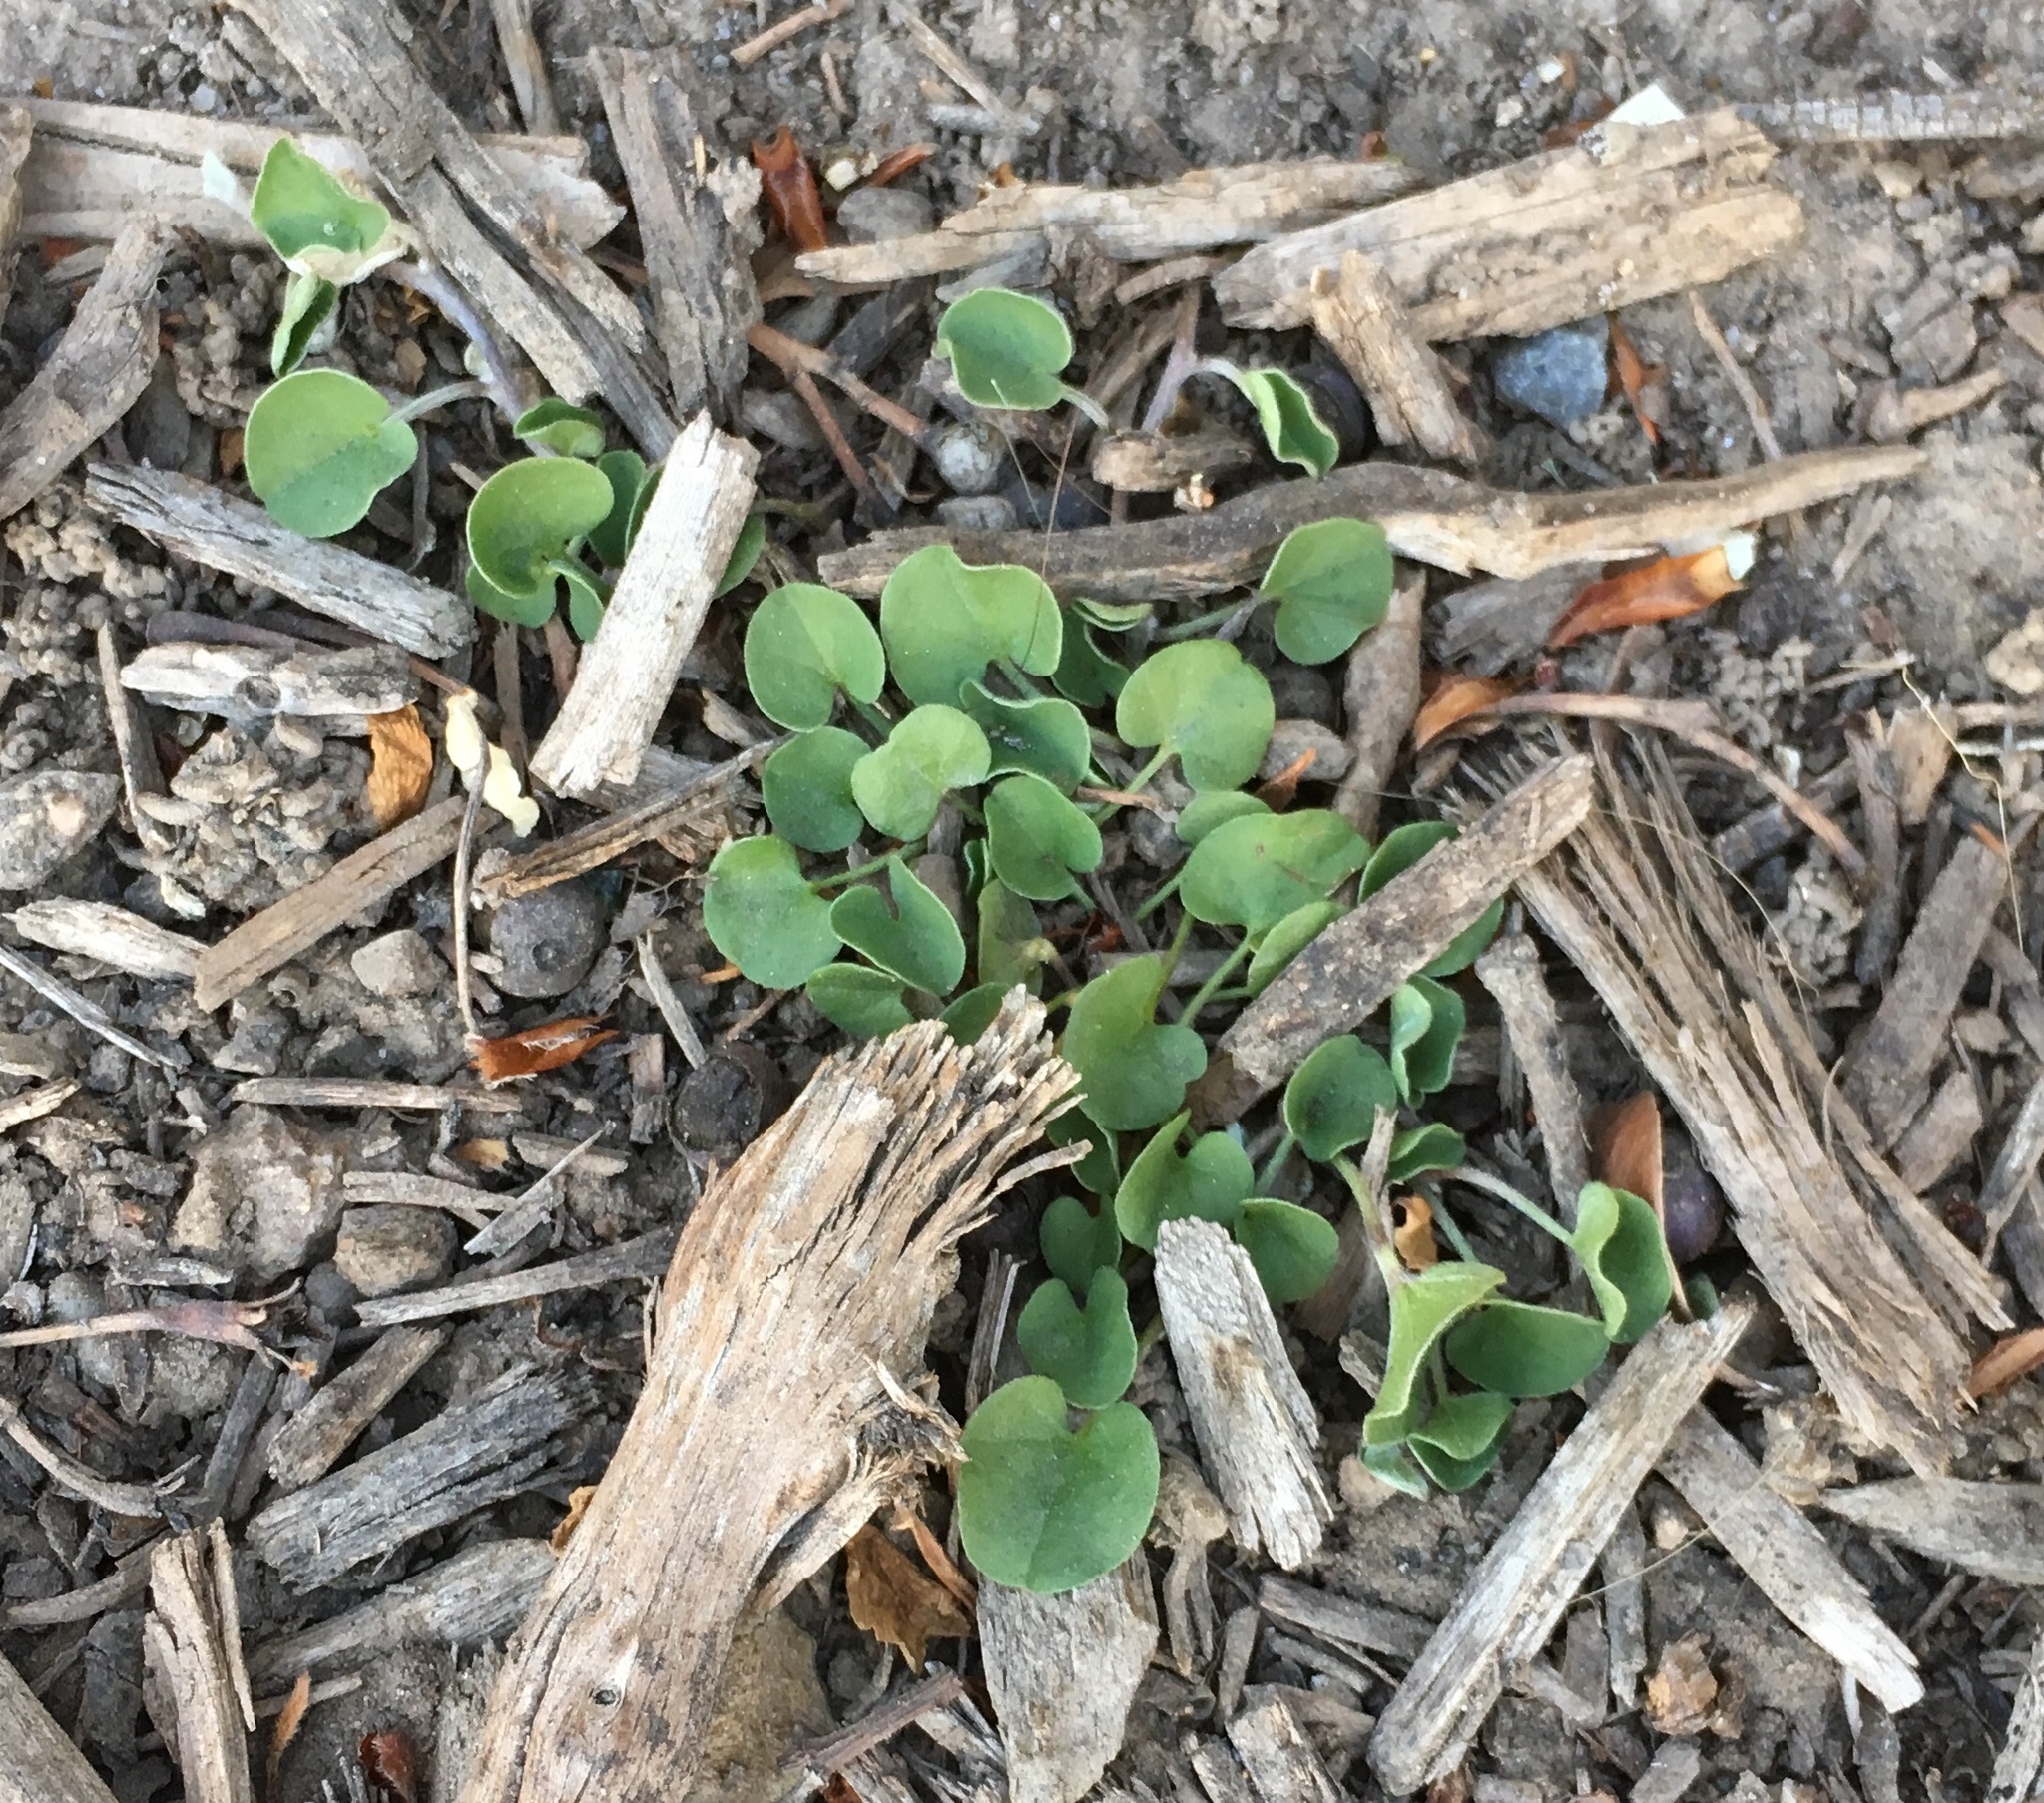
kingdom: Plantae
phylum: Tracheophyta
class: Magnoliopsida
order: Solanales
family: Convolvulaceae
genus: Dichondra
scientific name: Dichondra micrantha
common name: Kidneyweed
